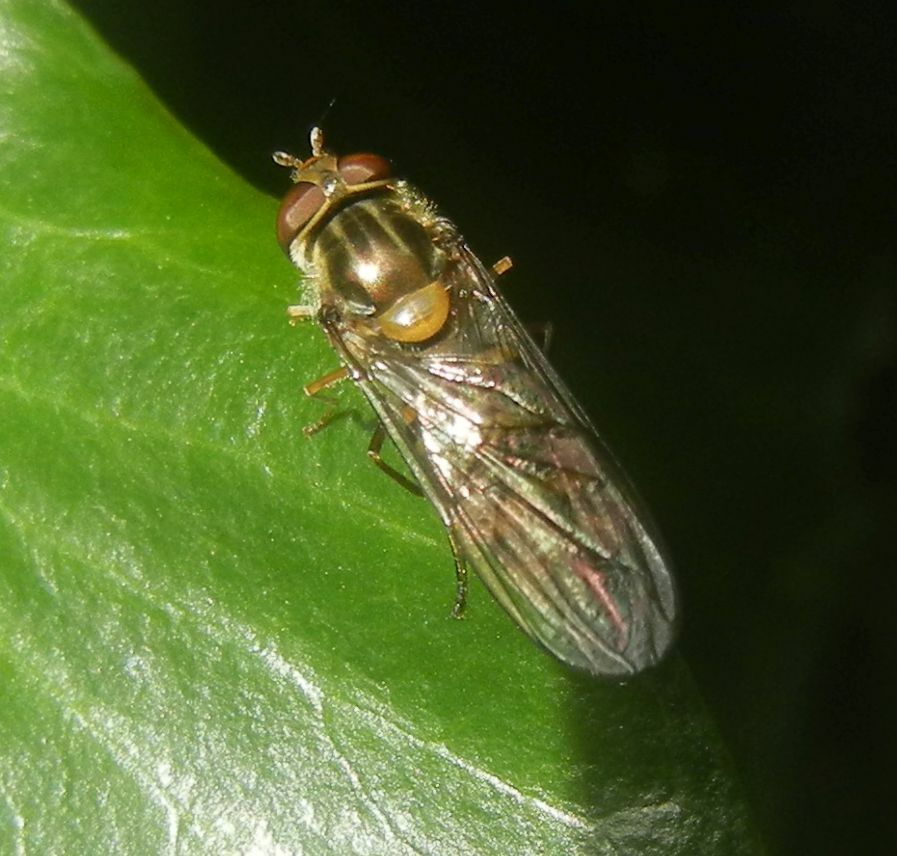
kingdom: Animalia
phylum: Arthropoda
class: Insecta
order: Diptera
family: Syrphidae
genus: Episyrphus
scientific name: Episyrphus balteatus
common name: Marmalade hoverfly
